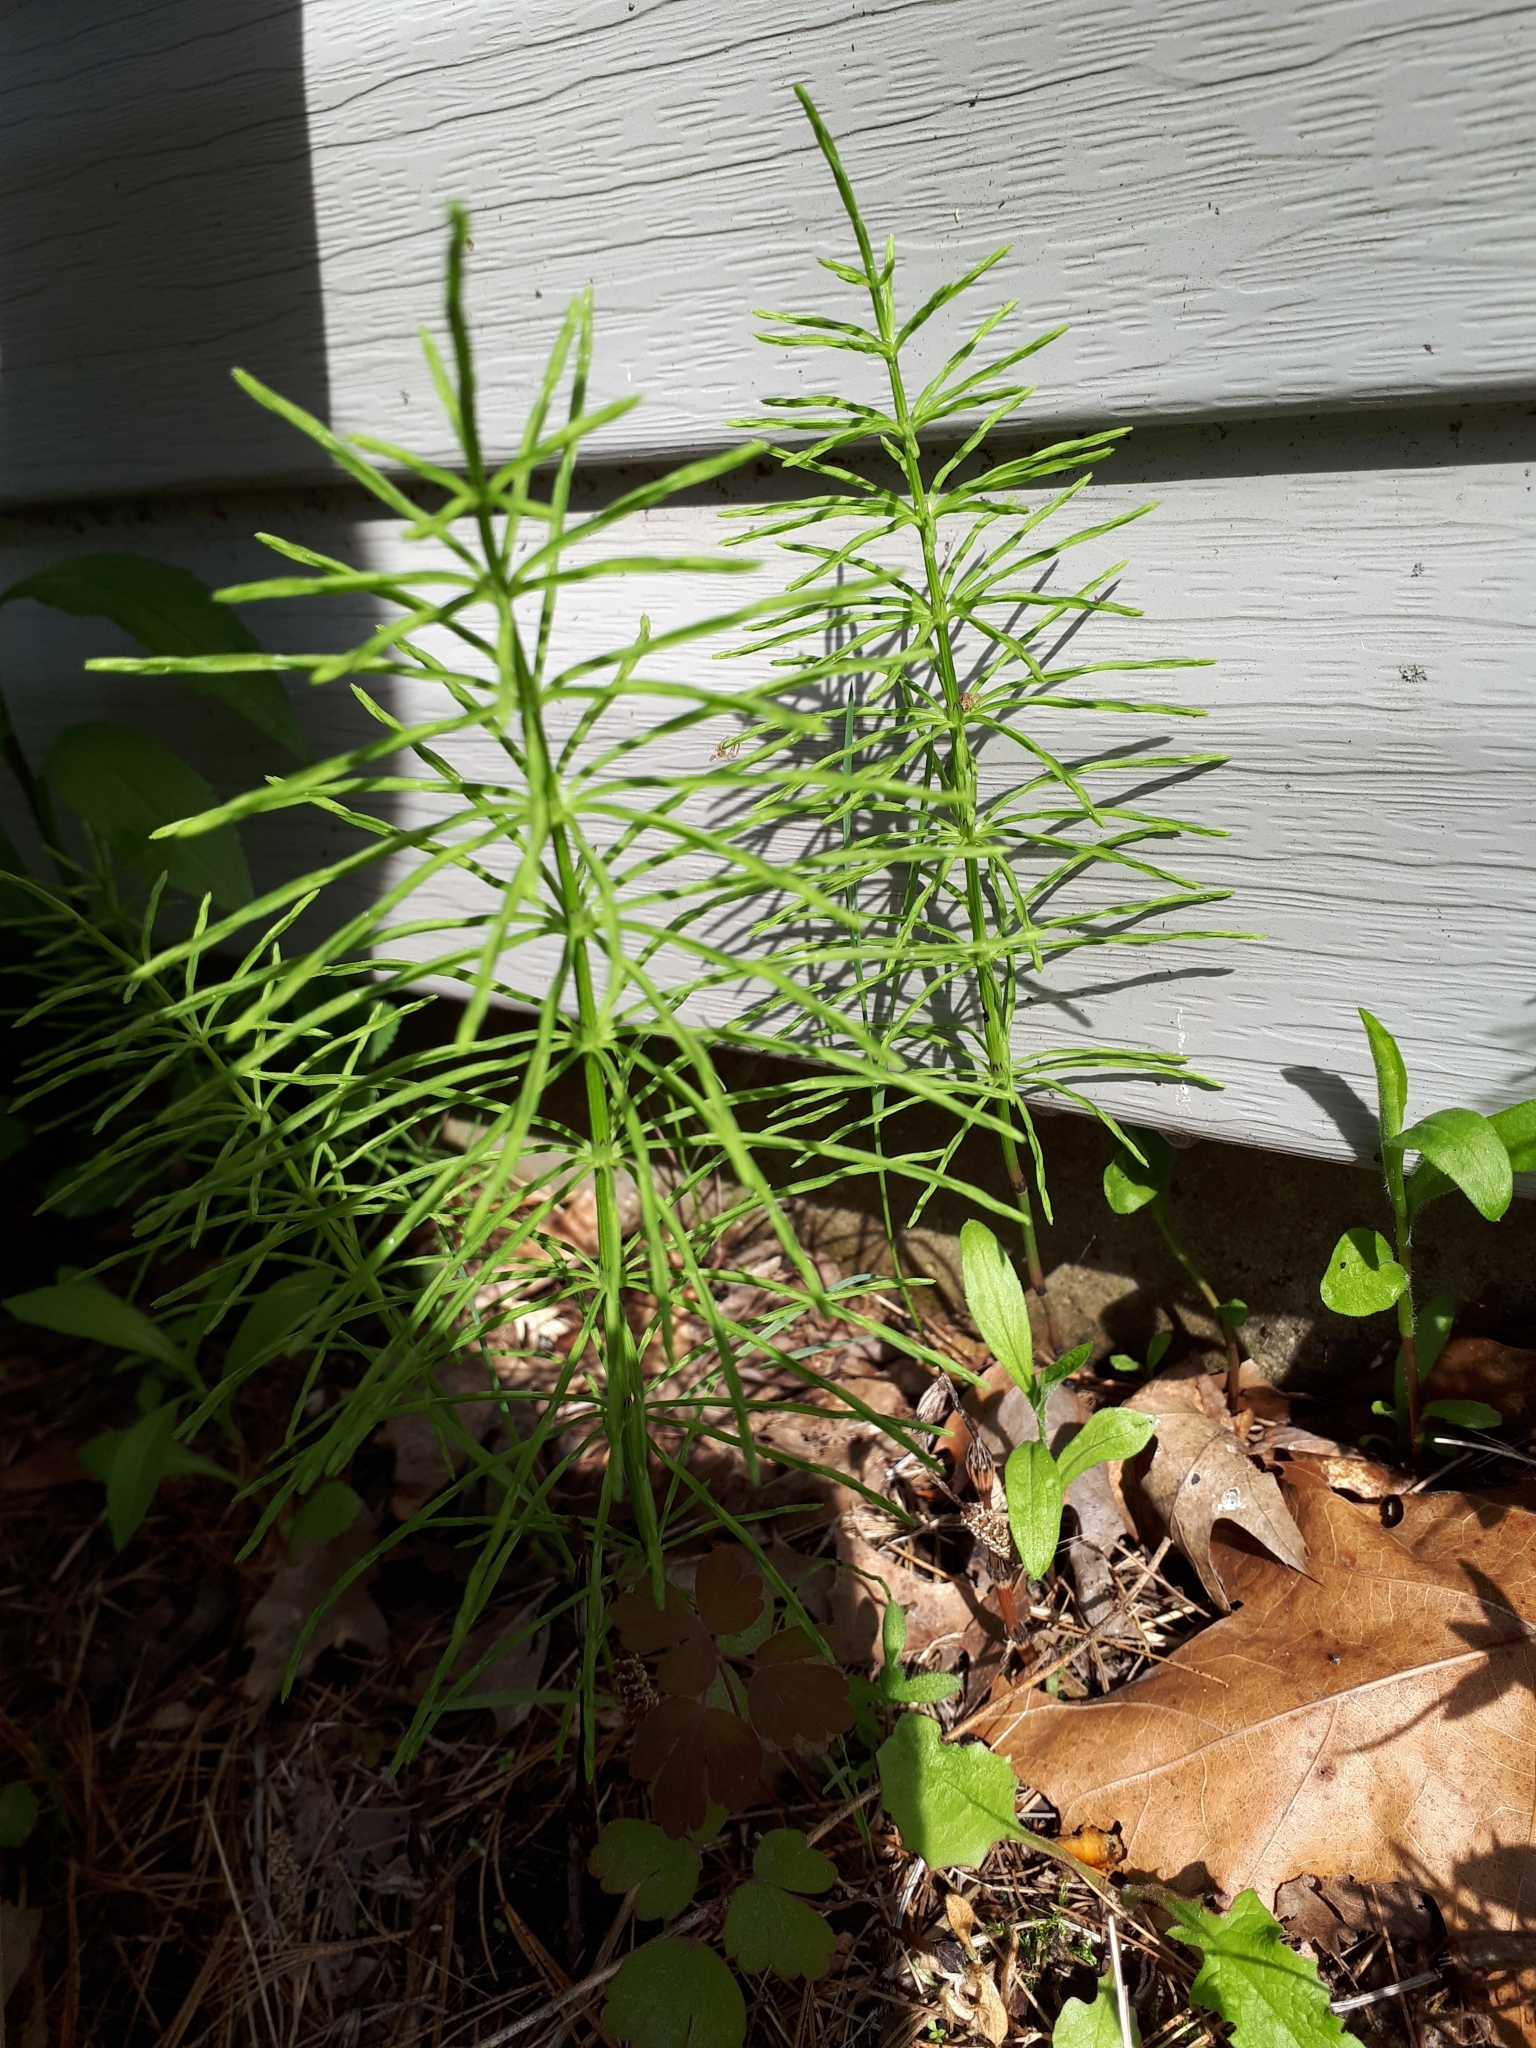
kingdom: Plantae
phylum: Tracheophyta
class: Polypodiopsida
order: Equisetales
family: Equisetaceae
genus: Equisetum
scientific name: Equisetum arvense
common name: Field horsetail
